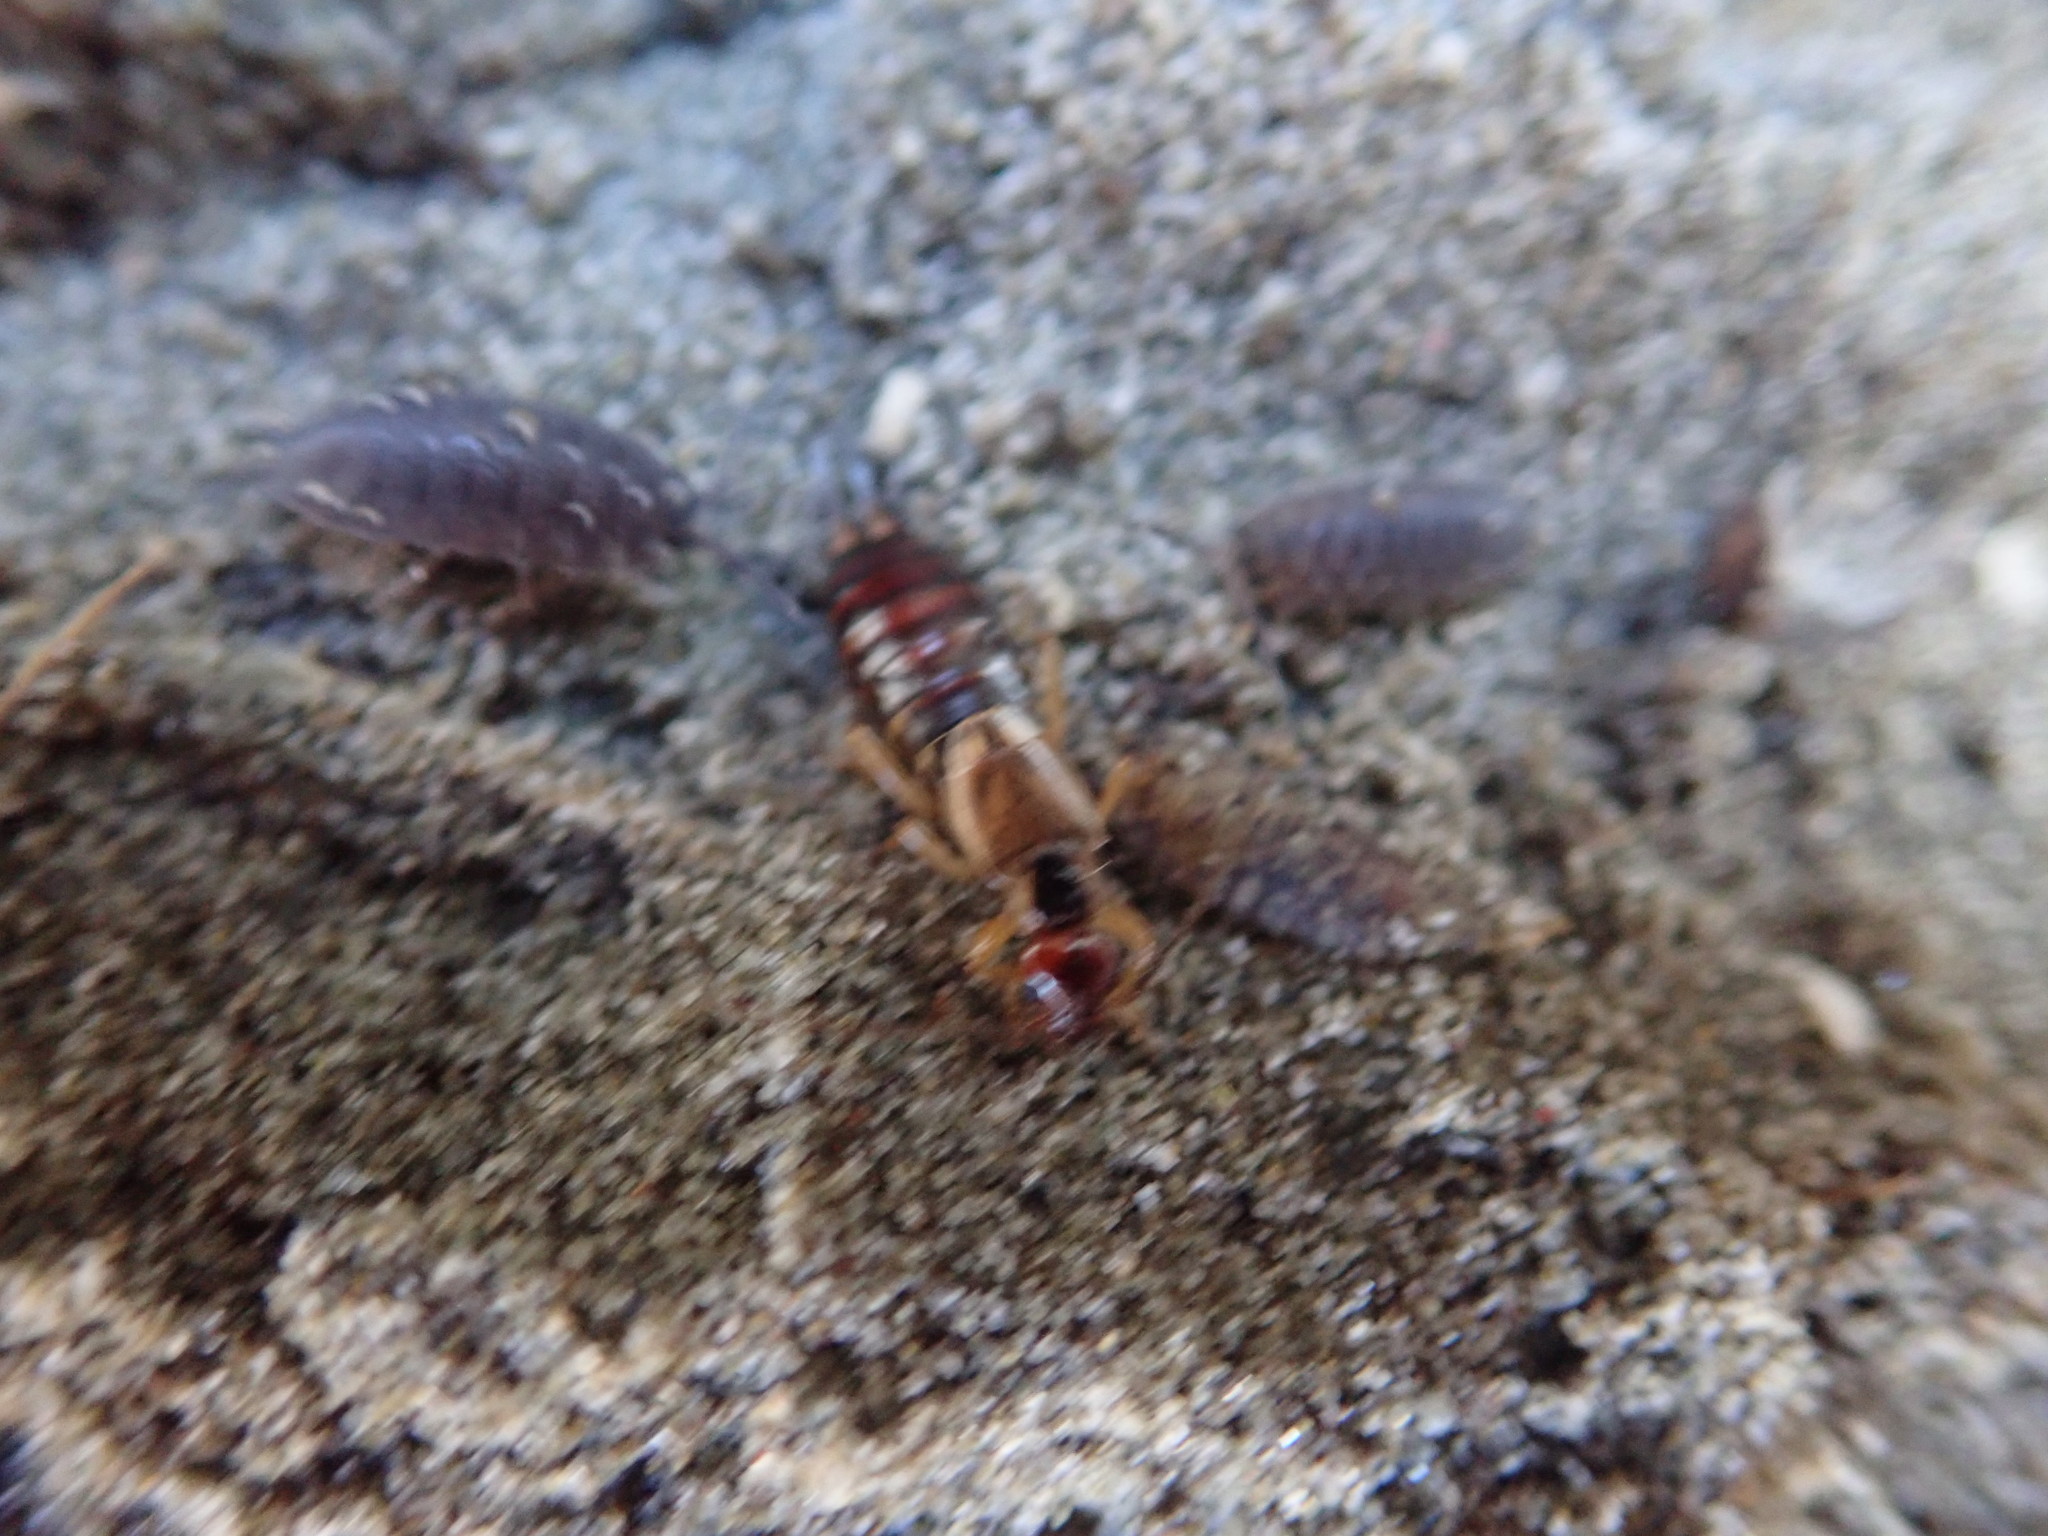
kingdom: Animalia
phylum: Arthropoda
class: Insecta
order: Dermaptera
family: Forficulidae
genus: Forficula
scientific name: Forficula
